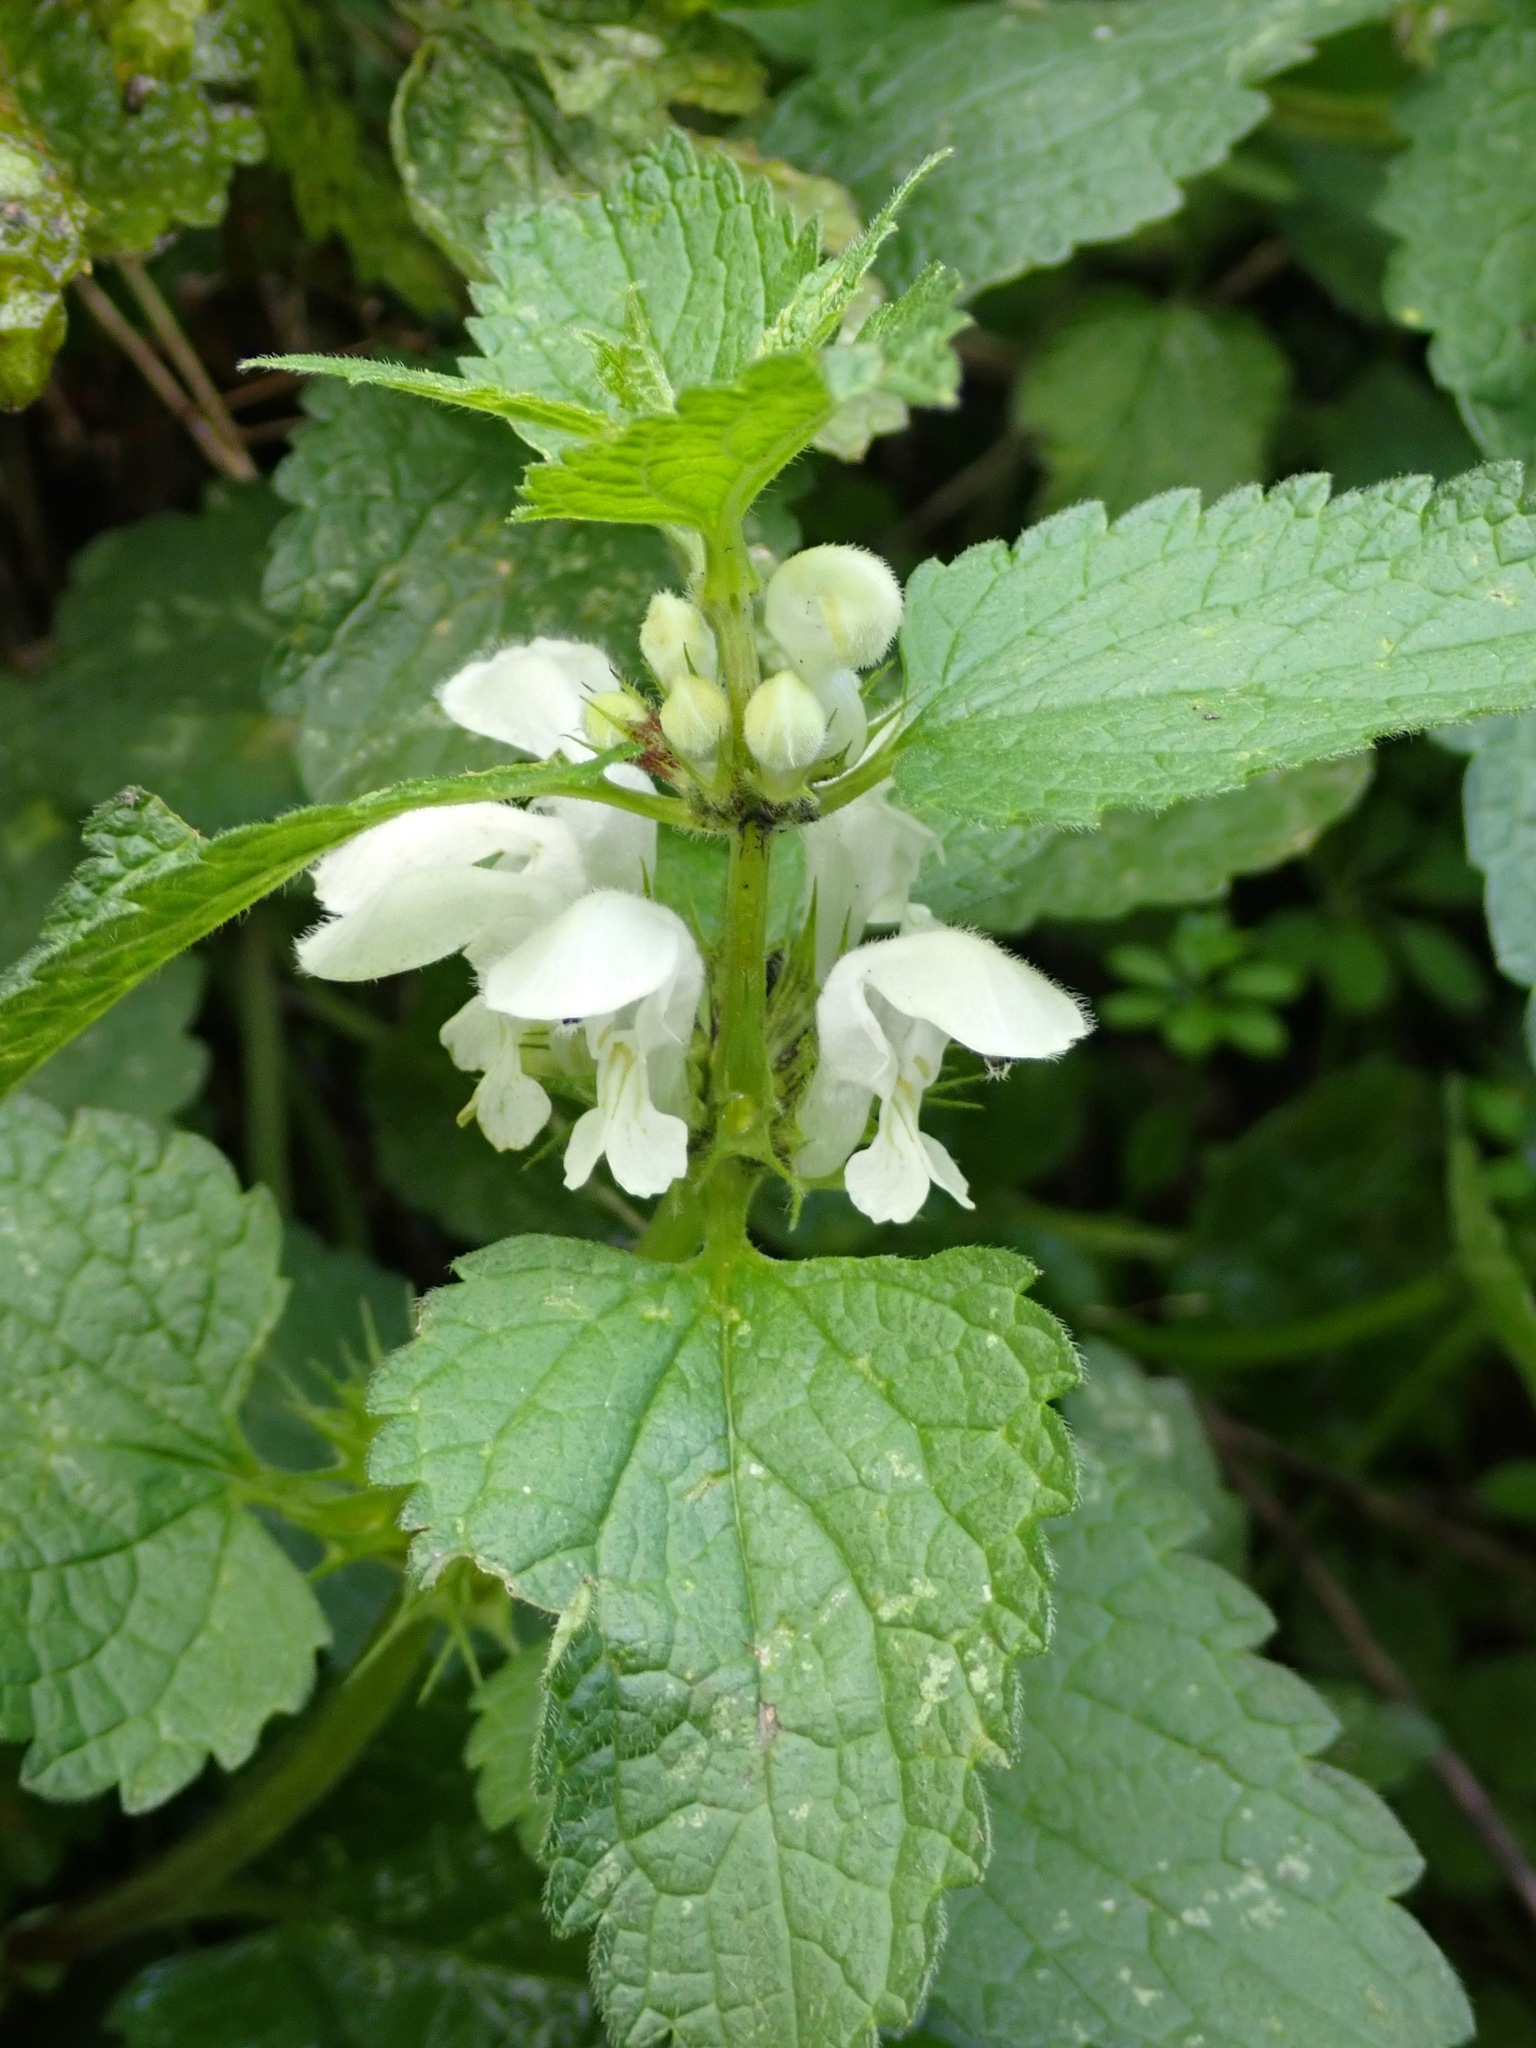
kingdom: Plantae
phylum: Tracheophyta
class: Magnoliopsida
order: Lamiales
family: Lamiaceae
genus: Lamium
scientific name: Lamium album
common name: White dead-nettle
